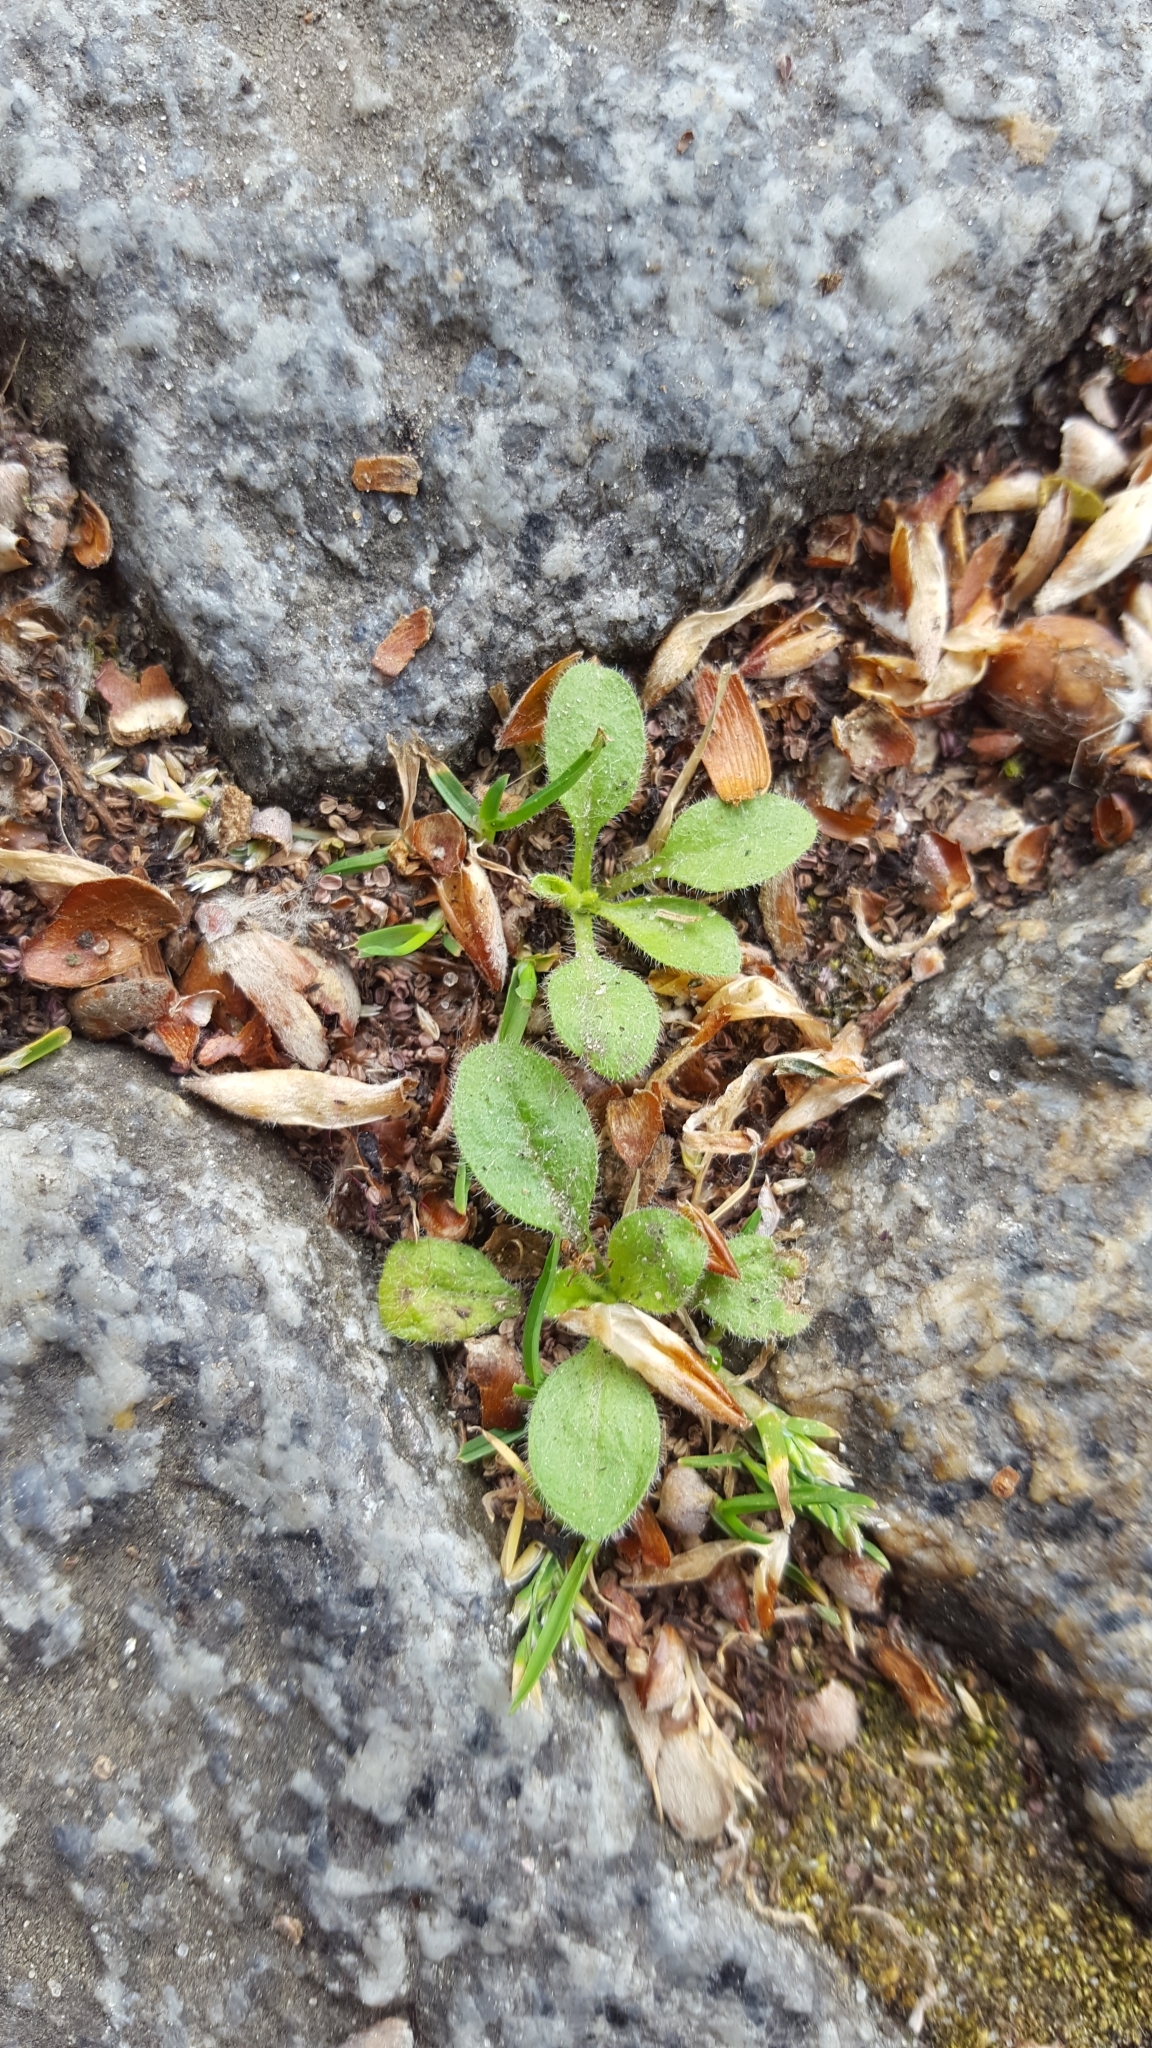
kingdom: Plantae
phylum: Tracheophyta
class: Magnoliopsida
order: Brassicales
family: Brassicaceae
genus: Arabidopsis
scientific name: Arabidopsis thaliana
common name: Thale cress
